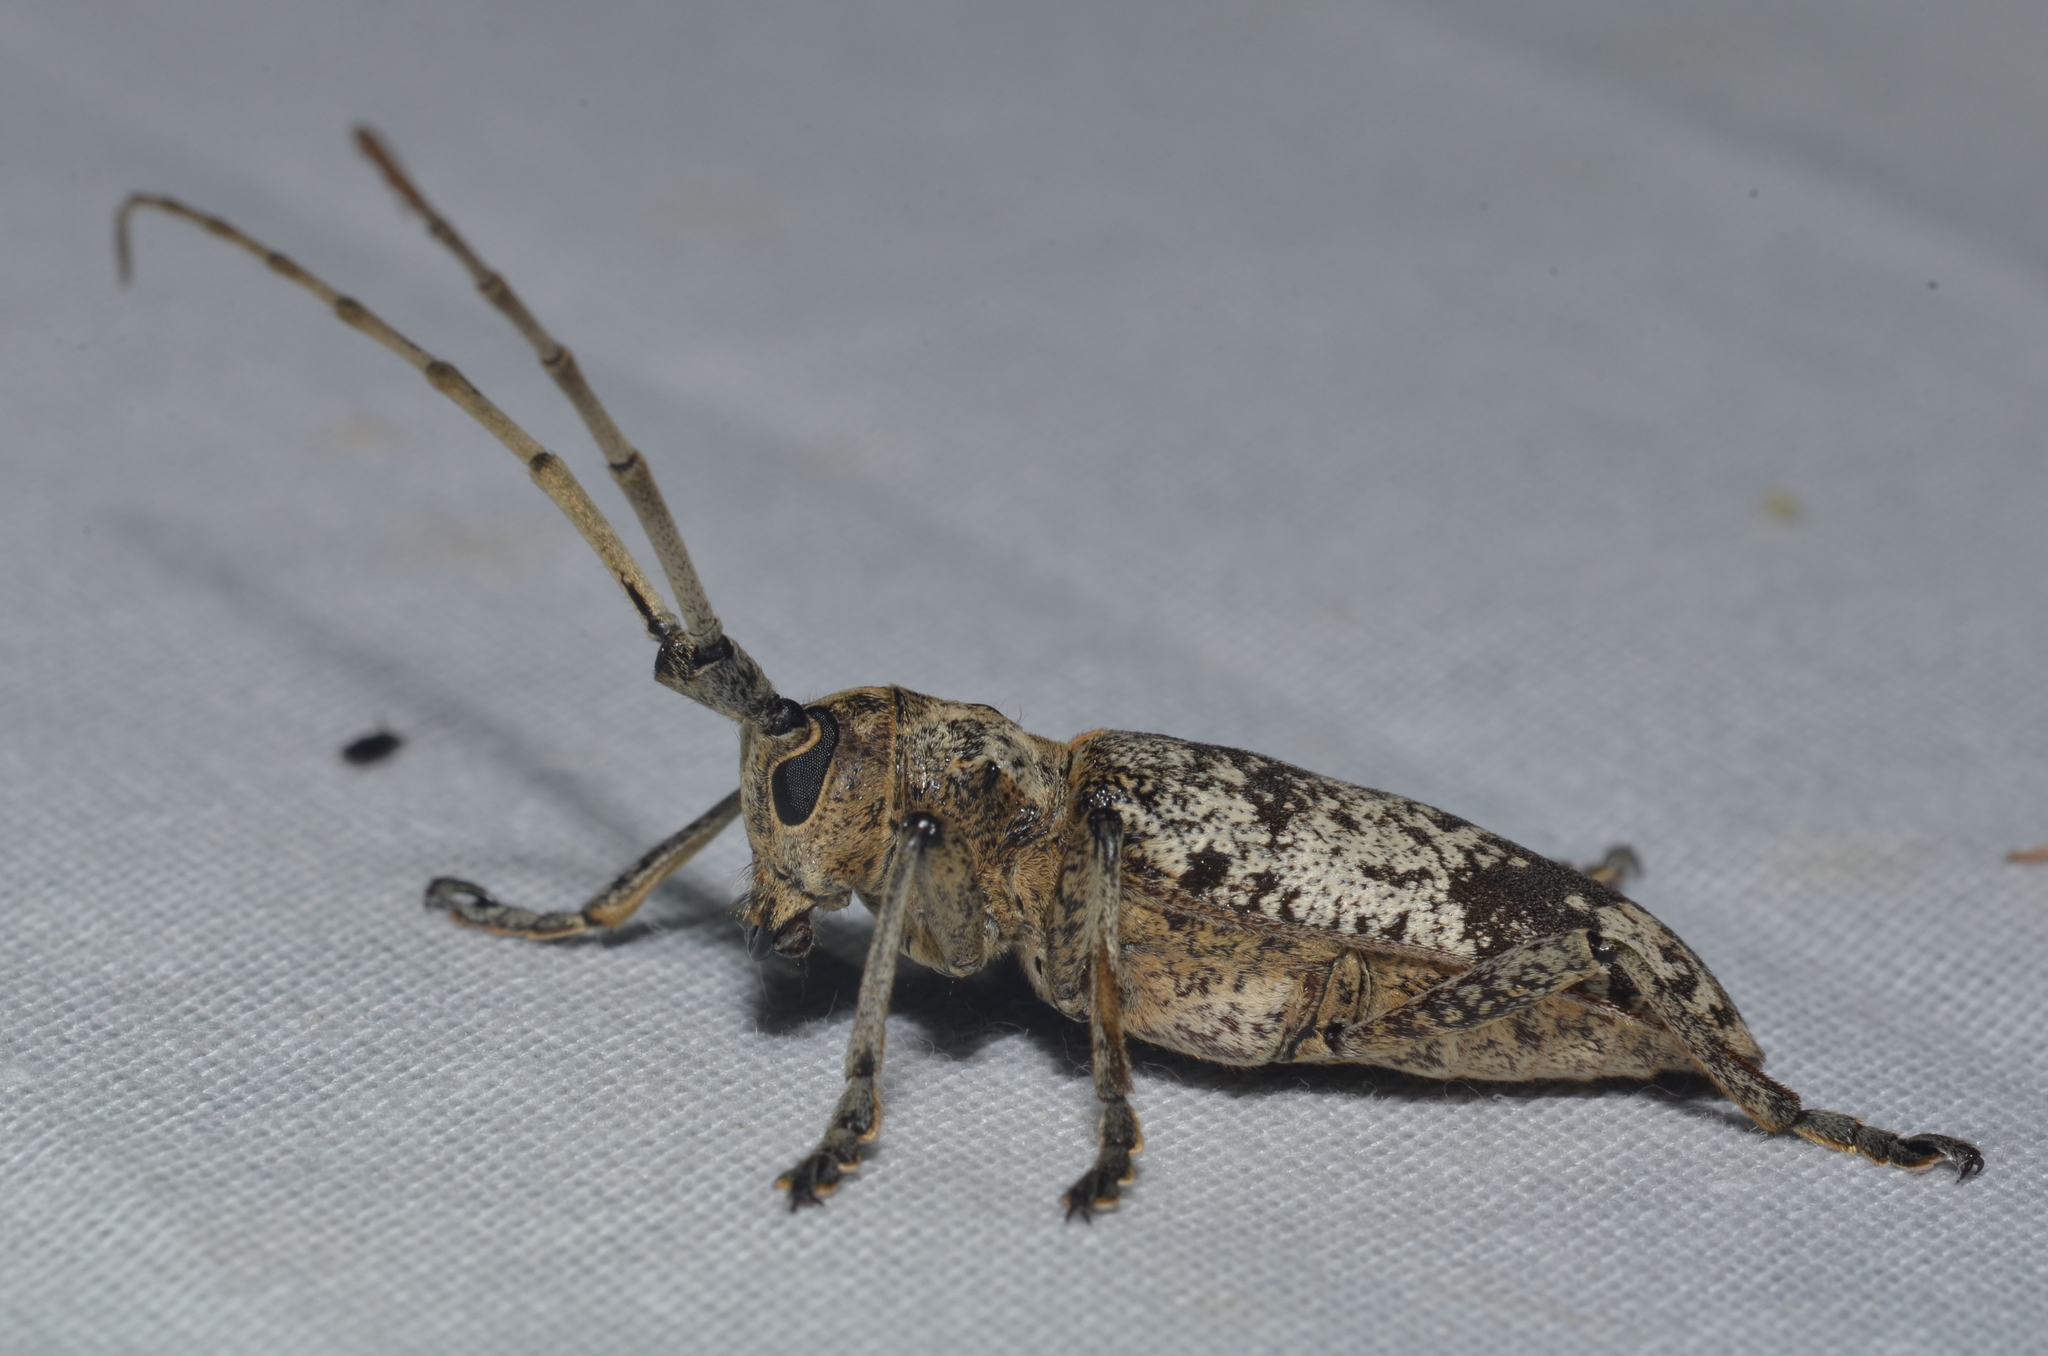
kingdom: Animalia
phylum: Arthropoda
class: Insecta
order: Coleoptera
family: Cerambycidae
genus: Goes
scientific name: Goes tigrinus
